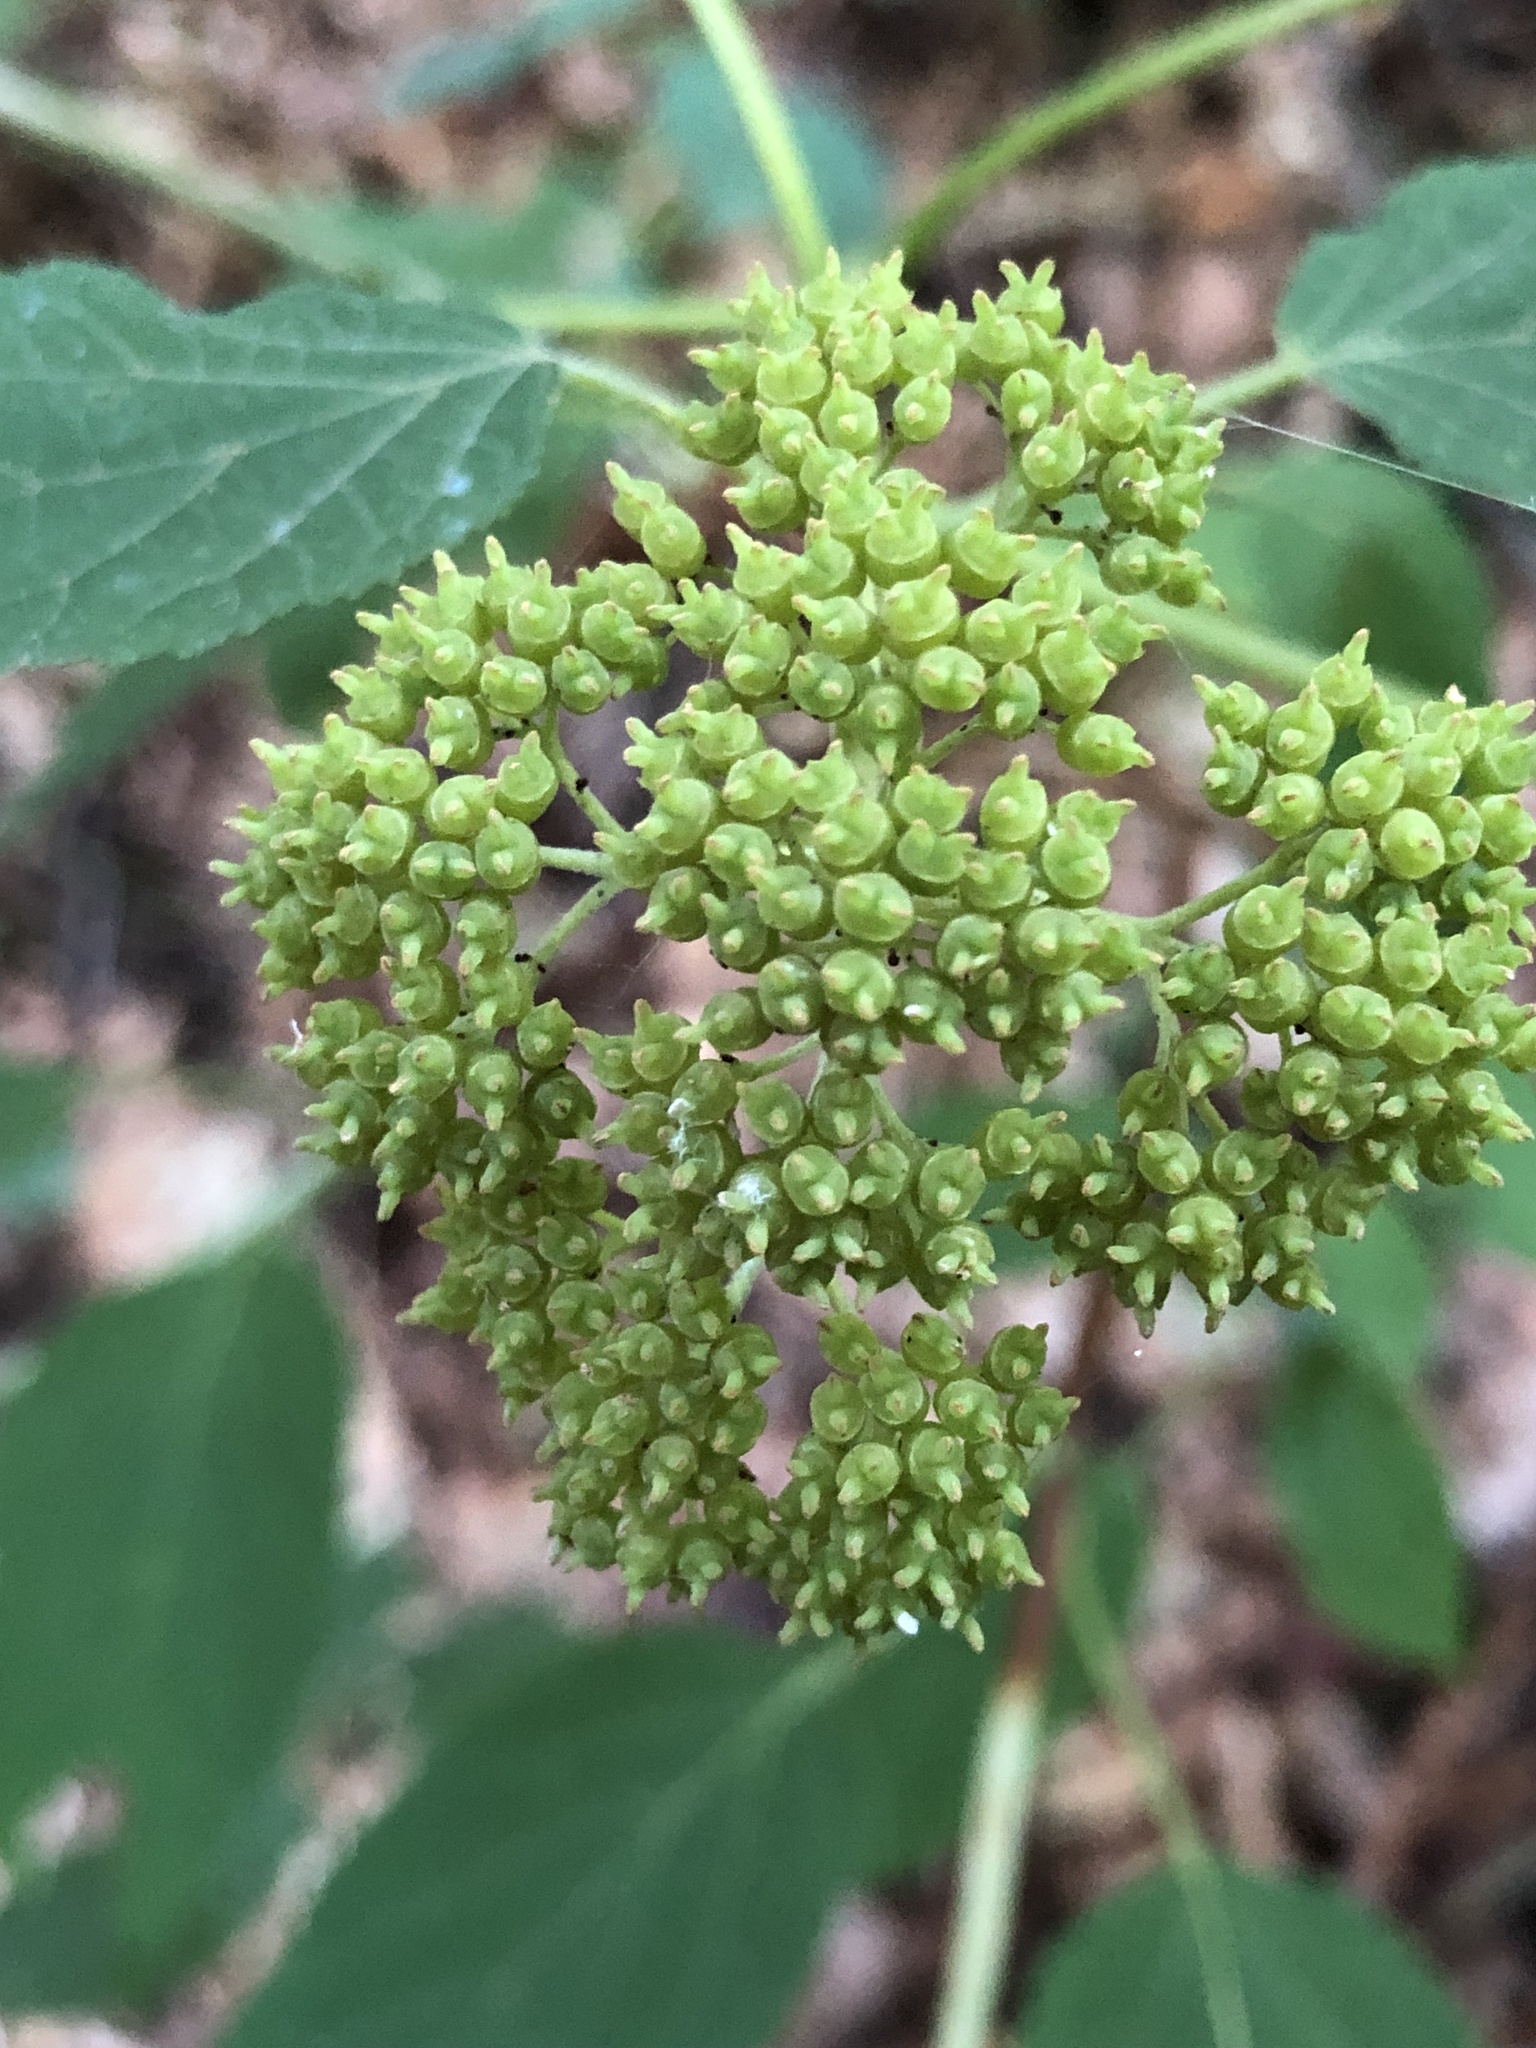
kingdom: Plantae
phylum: Tracheophyta
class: Magnoliopsida
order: Cornales
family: Hydrangeaceae
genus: Hydrangea
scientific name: Hydrangea arborescens
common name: Sevenbark
